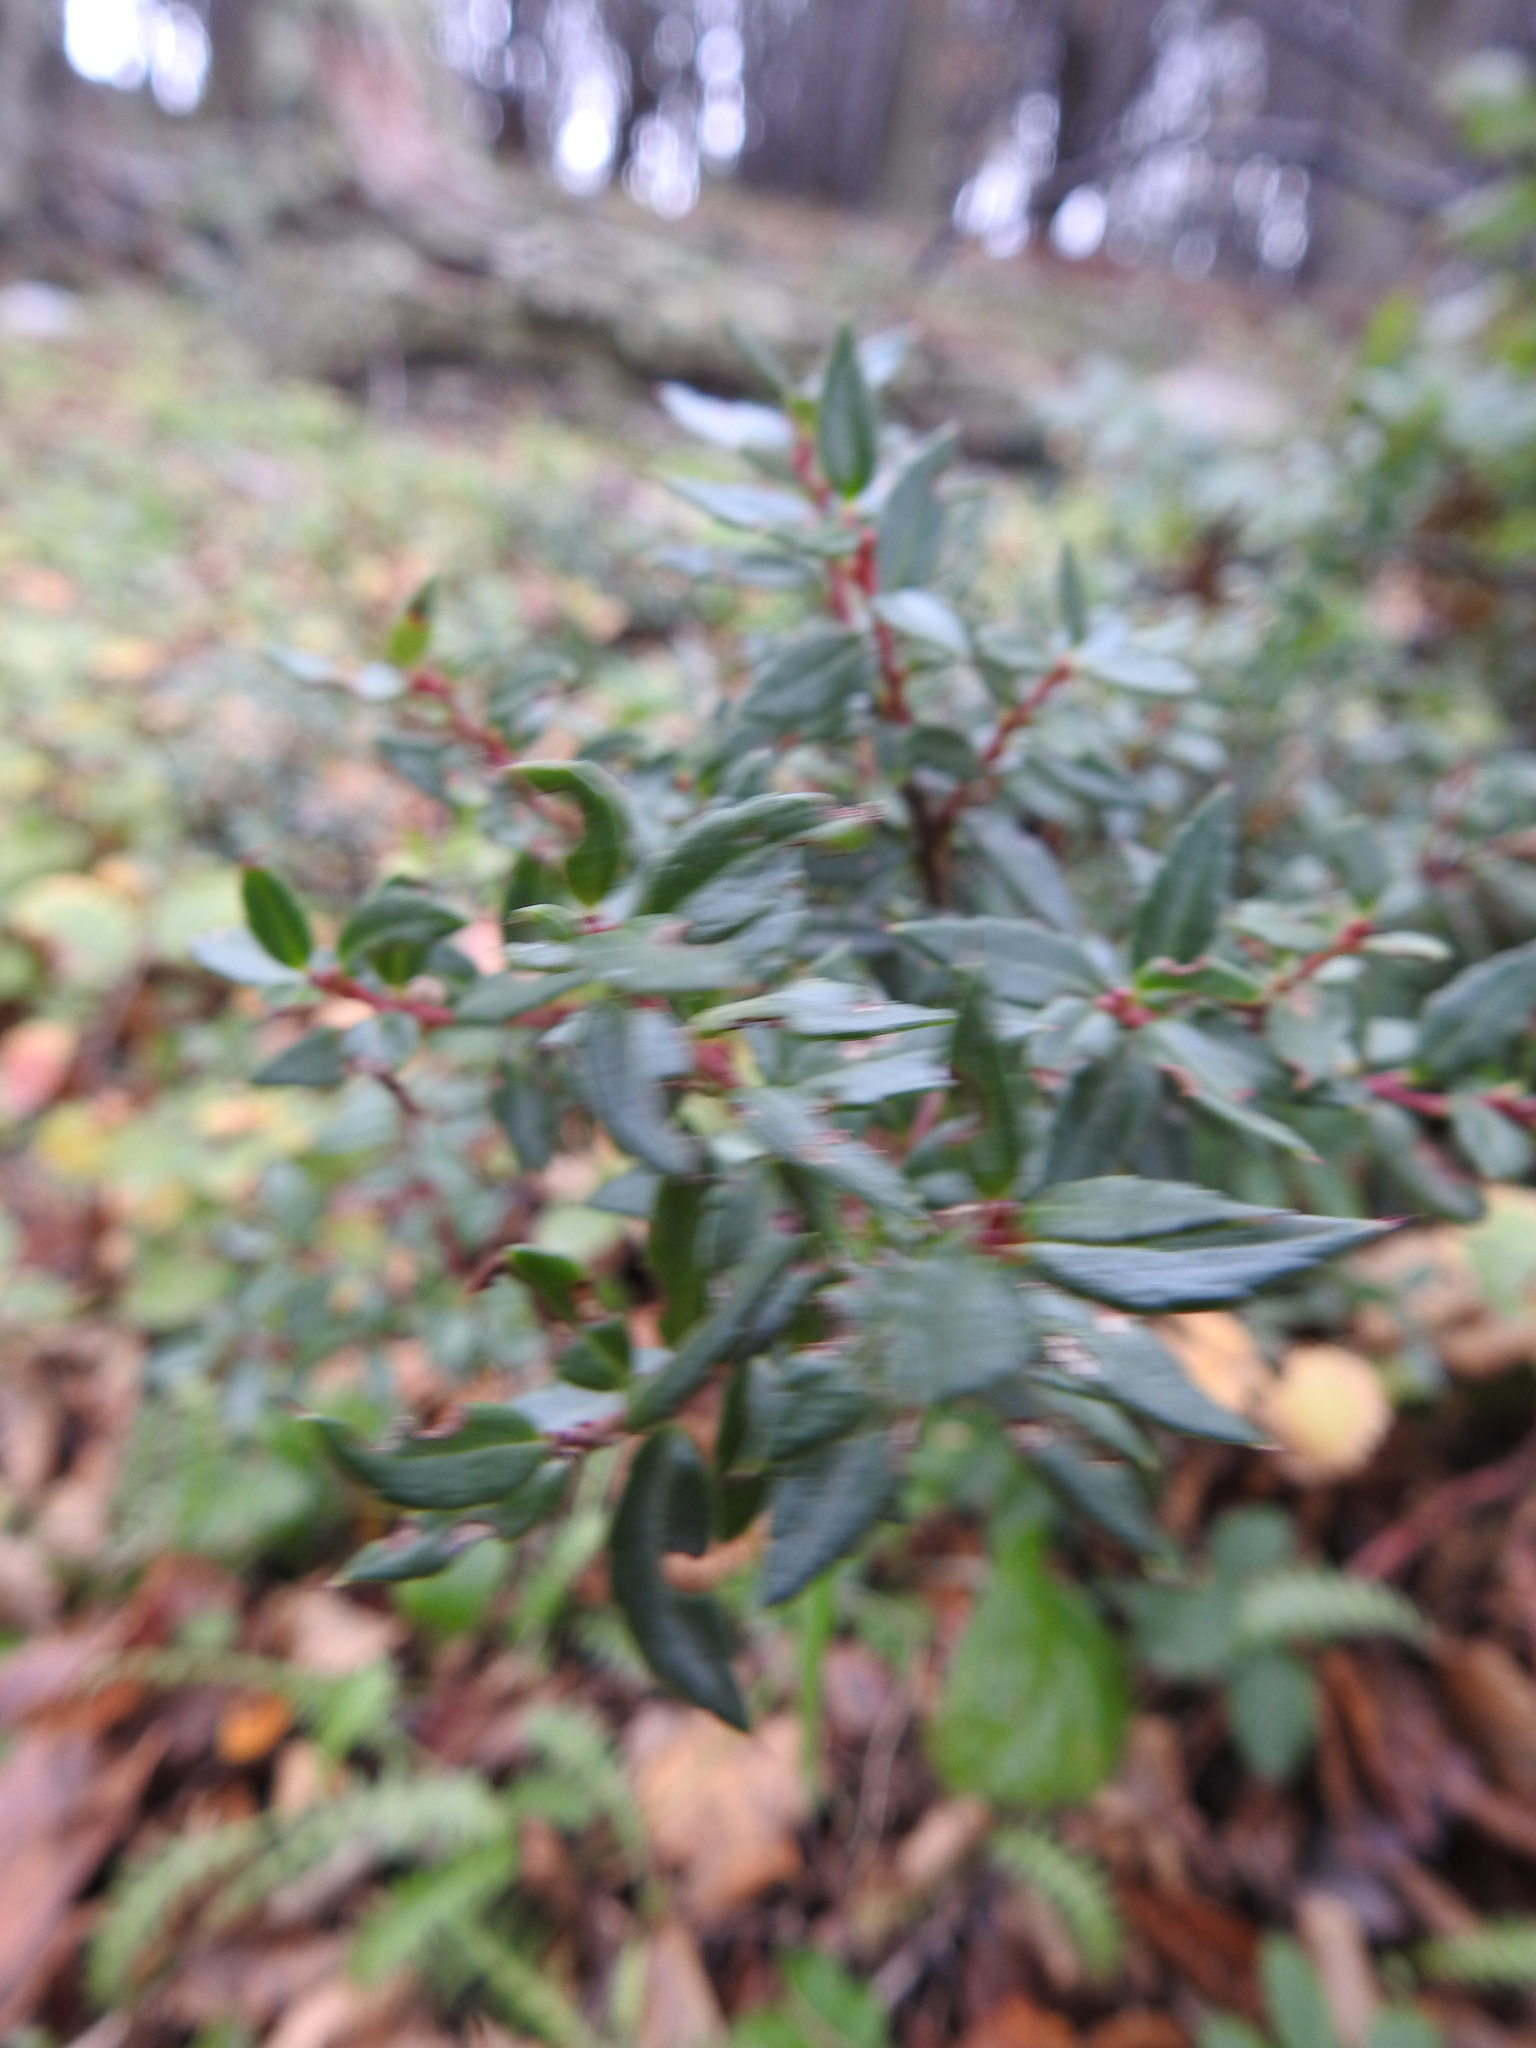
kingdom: Plantae
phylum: Tracheophyta
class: Magnoliopsida
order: Ericales
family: Ericaceae
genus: Gaultheria
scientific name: Gaultheria mucronata
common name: Prickly heath
